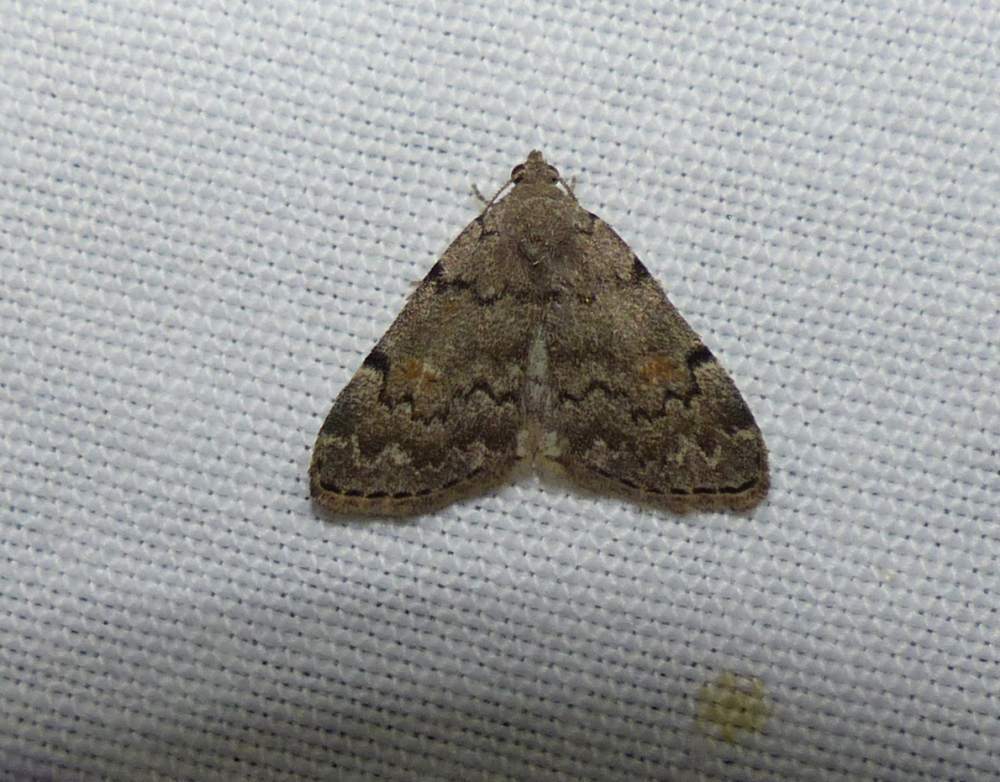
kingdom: Animalia
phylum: Arthropoda
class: Insecta
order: Lepidoptera
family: Erebidae
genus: Idia
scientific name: Idia aemula
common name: Common idia moth
